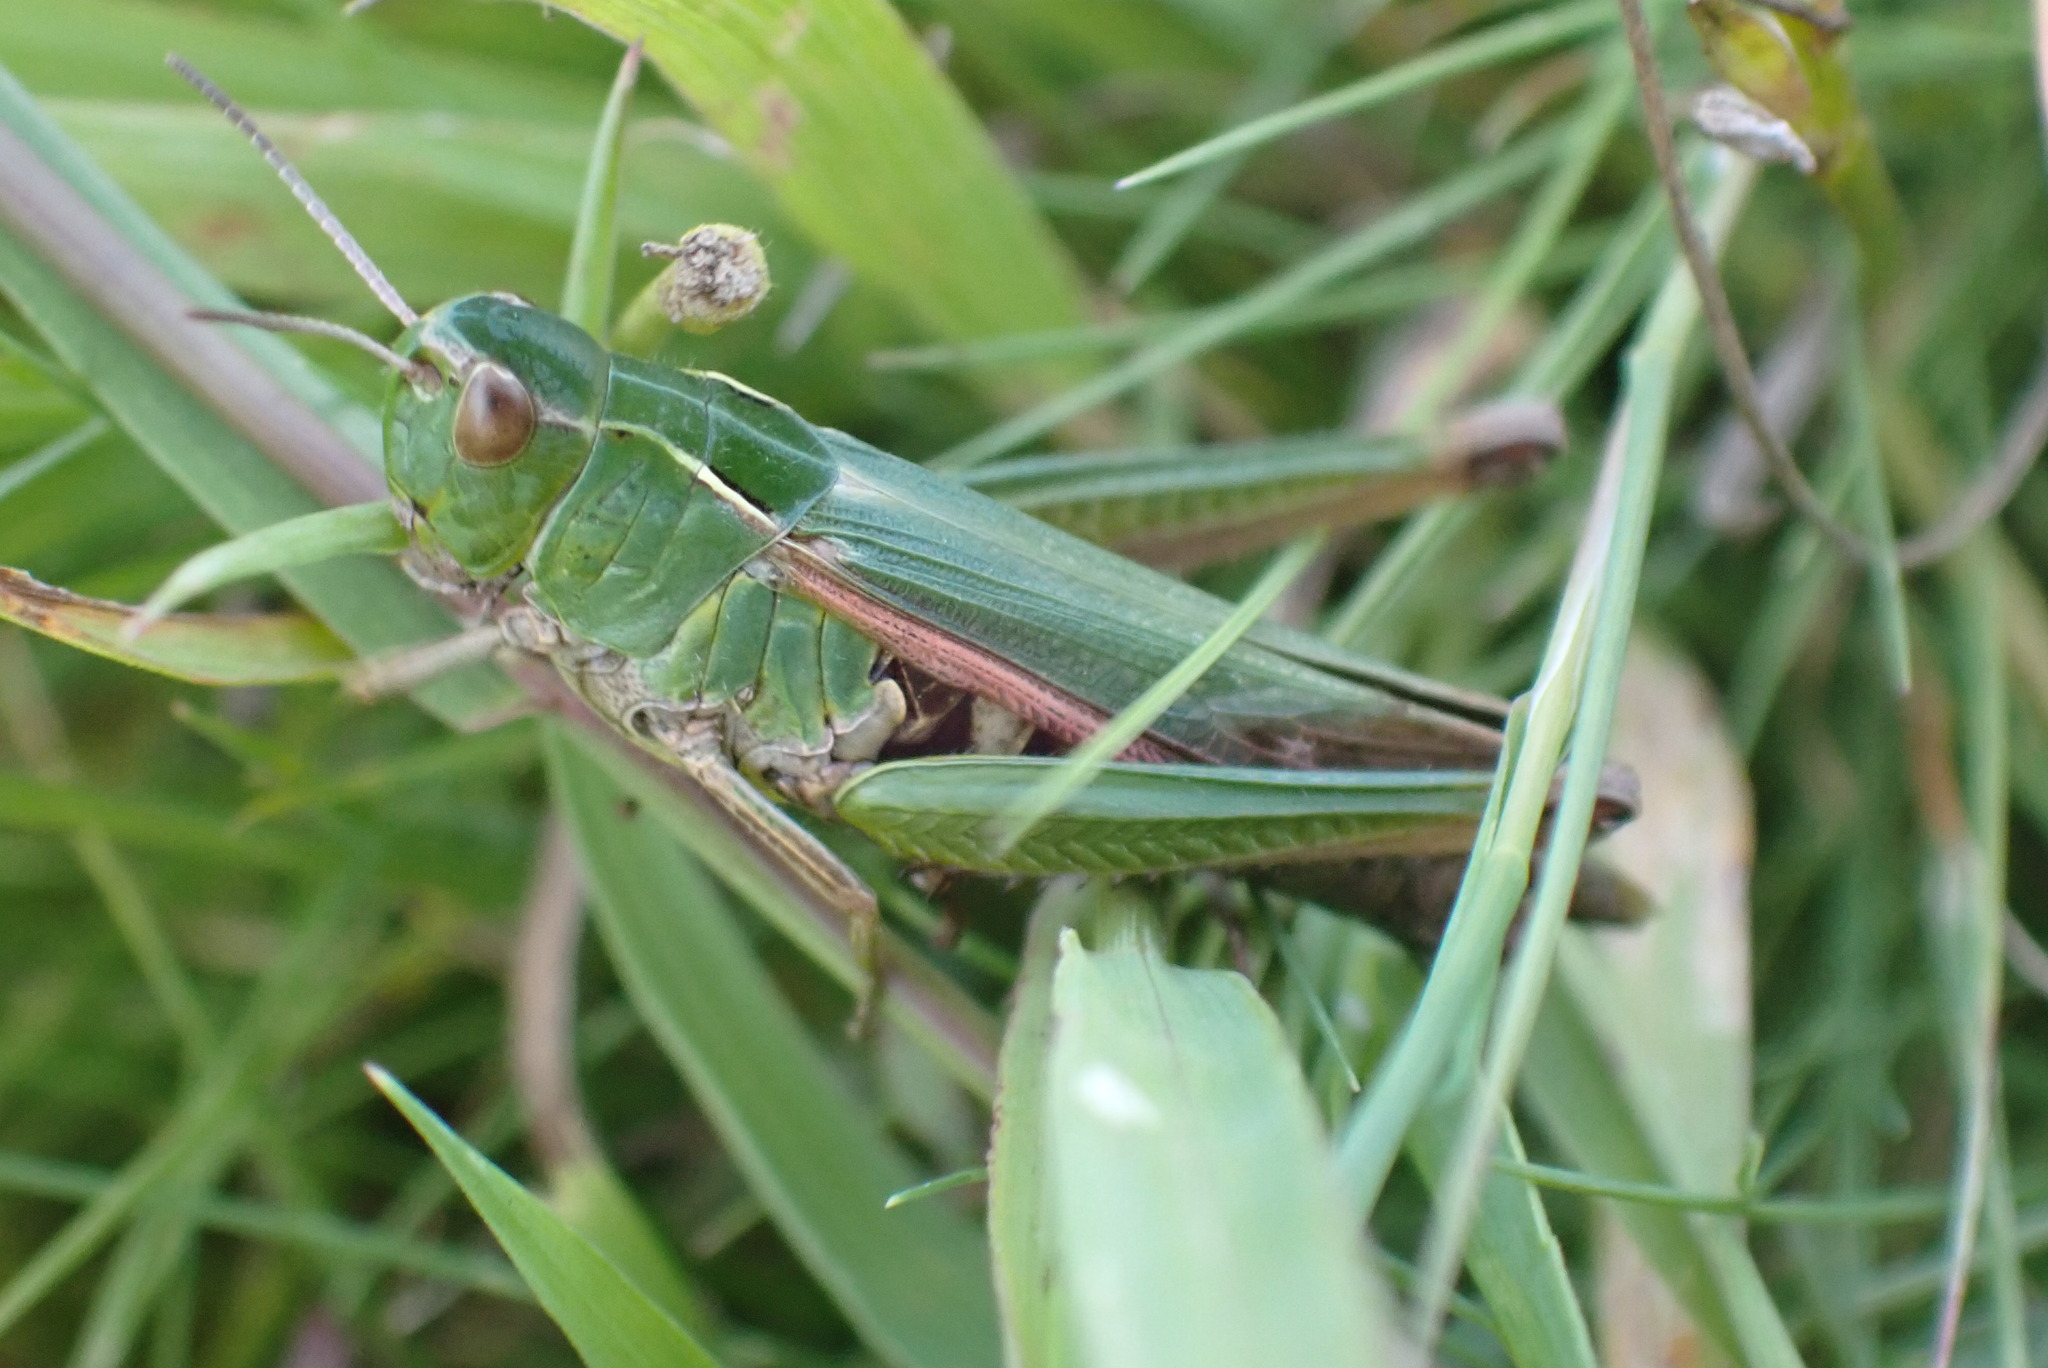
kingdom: Animalia
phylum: Arthropoda
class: Insecta
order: Orthoptera
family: Acrididae
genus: Omocestus
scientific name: Omocestus viridulus
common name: Common green grasshopper
